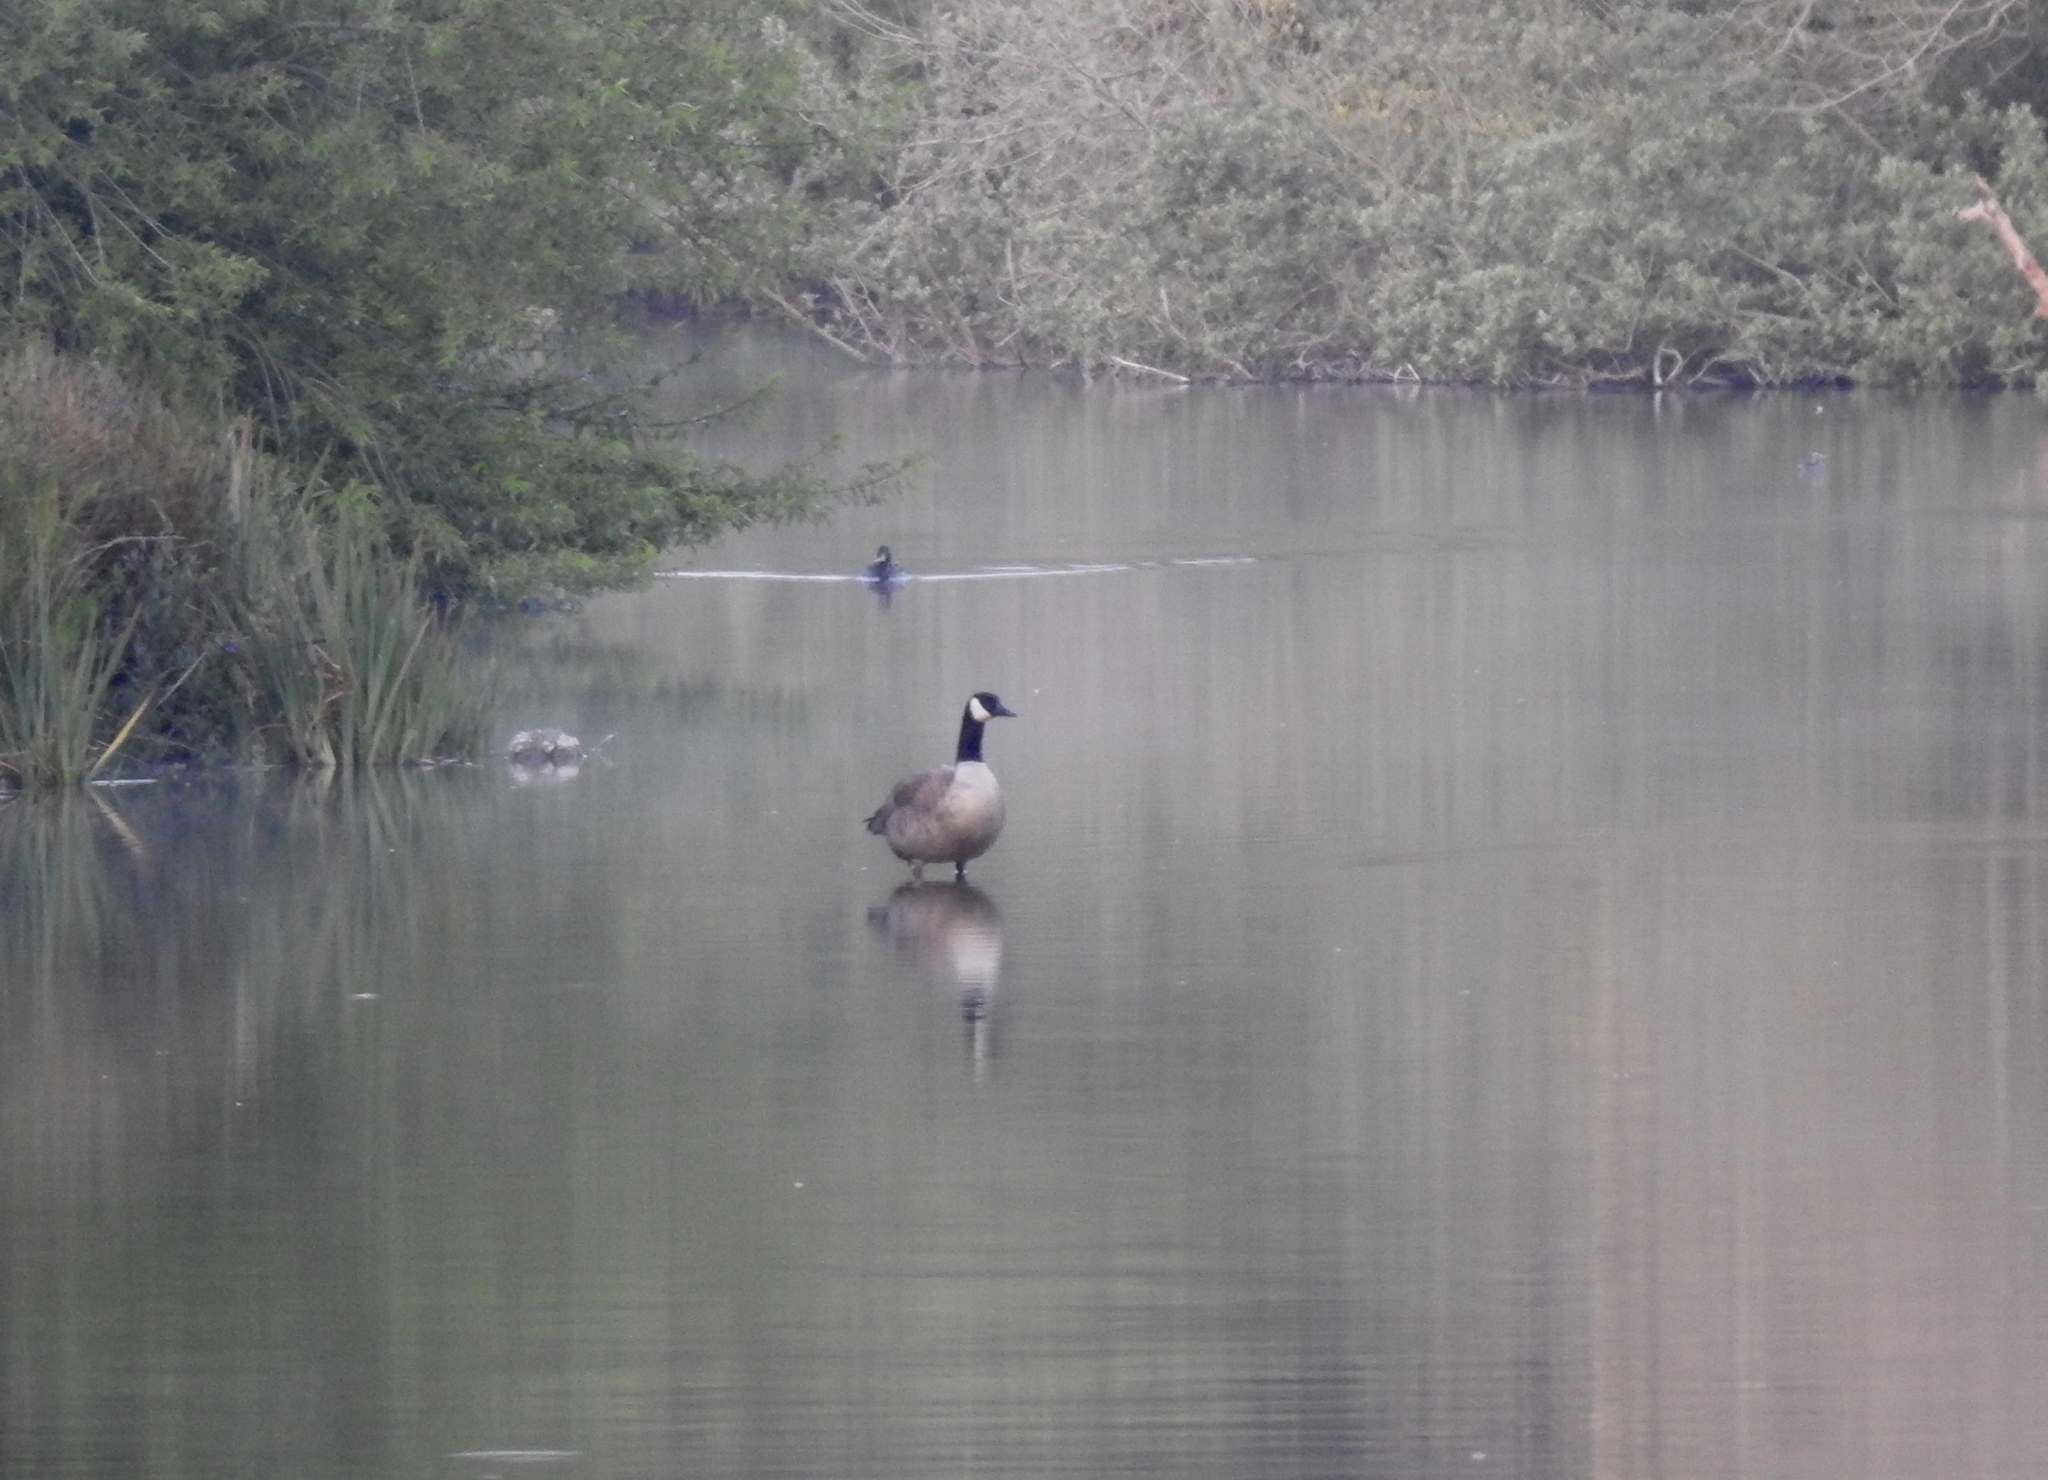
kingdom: Animalia
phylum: Chordata
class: Aves
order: Anseriformes
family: Anatidae
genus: Branta
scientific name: Branta canadensis
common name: Canada goose
